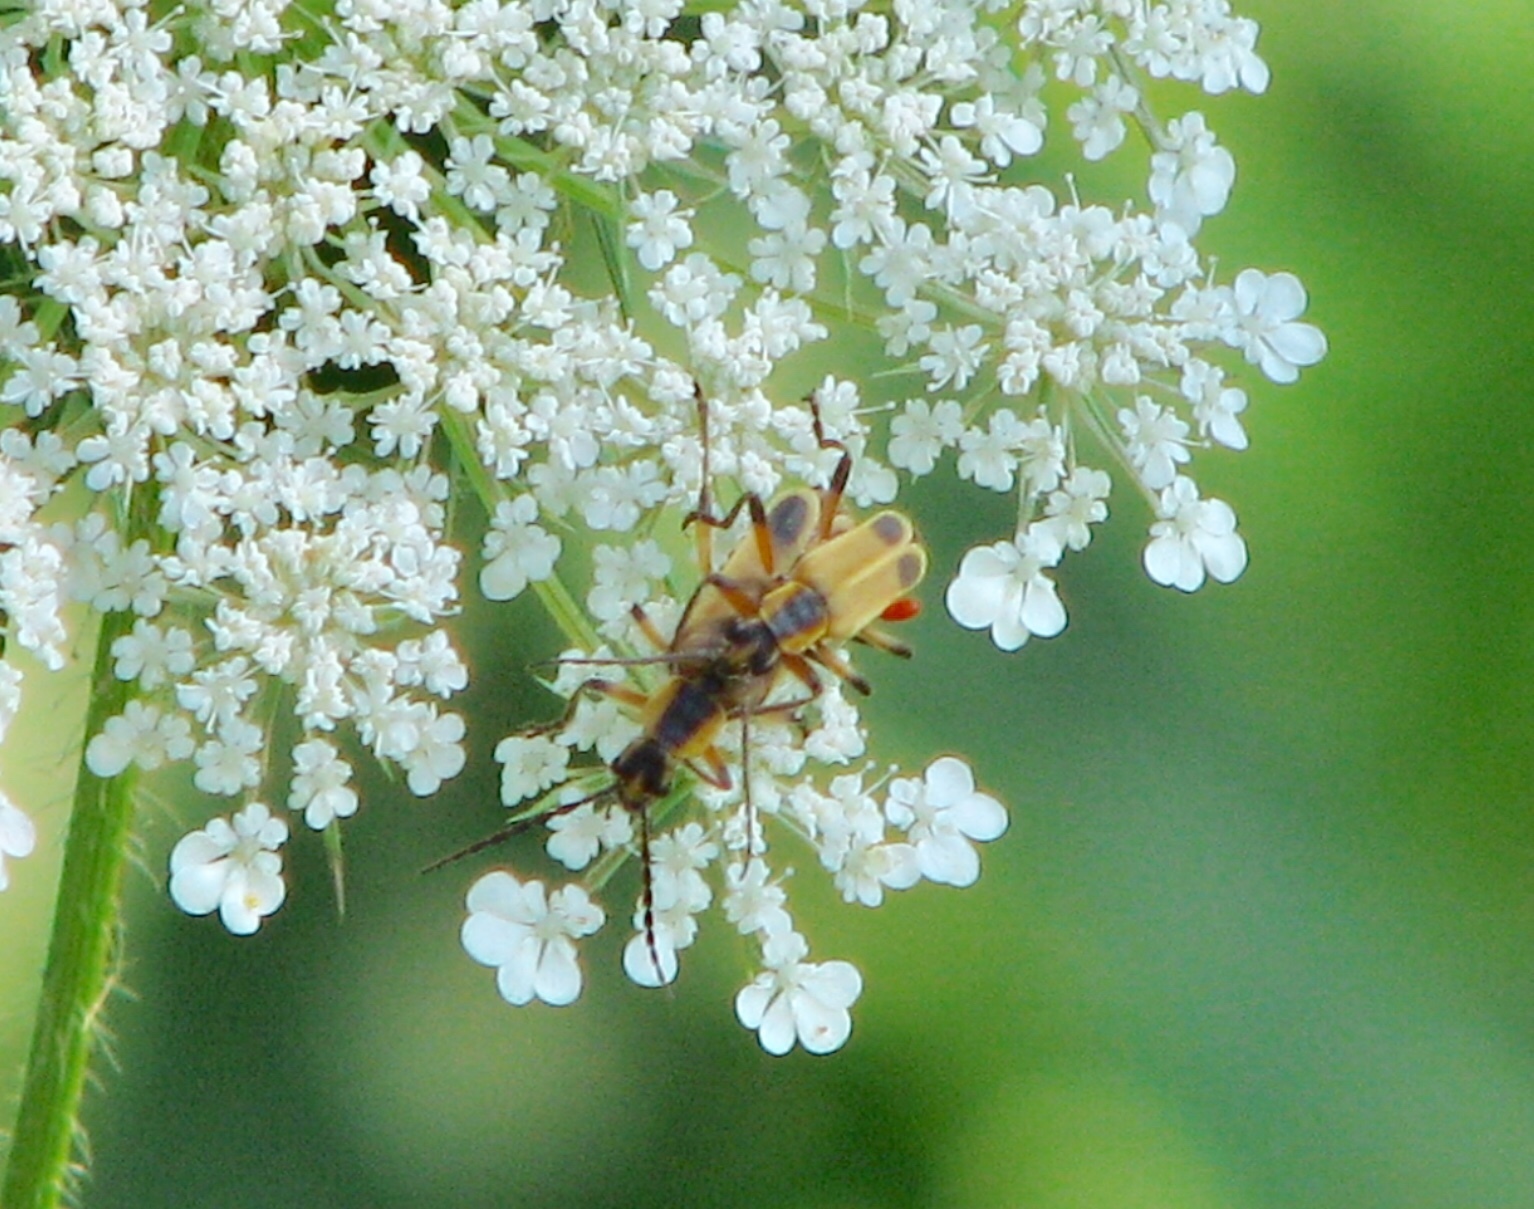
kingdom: Animalia
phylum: Arthropoda
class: Insecta
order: Coleoptera
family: Cantharidae
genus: Chauliognathus
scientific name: Chauliognathus marginatus
